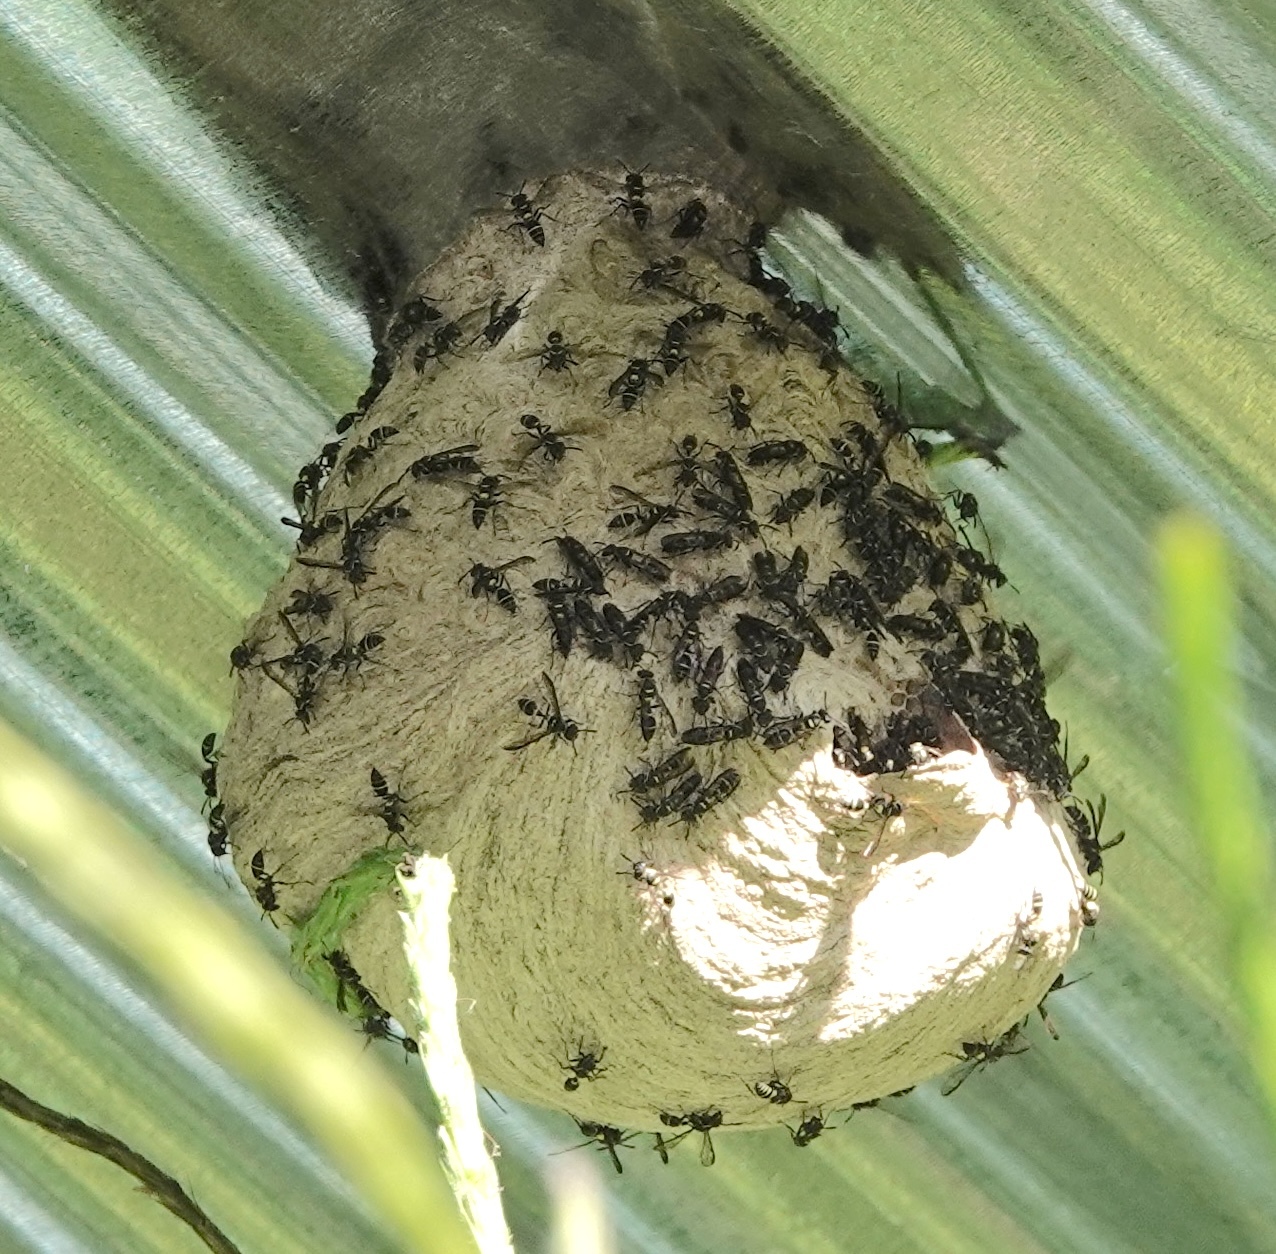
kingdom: Animalia
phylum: Arthropoda
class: Insecta
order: Hymenoptera
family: Eumenidae
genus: Polybia
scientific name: Polybia plebeja
